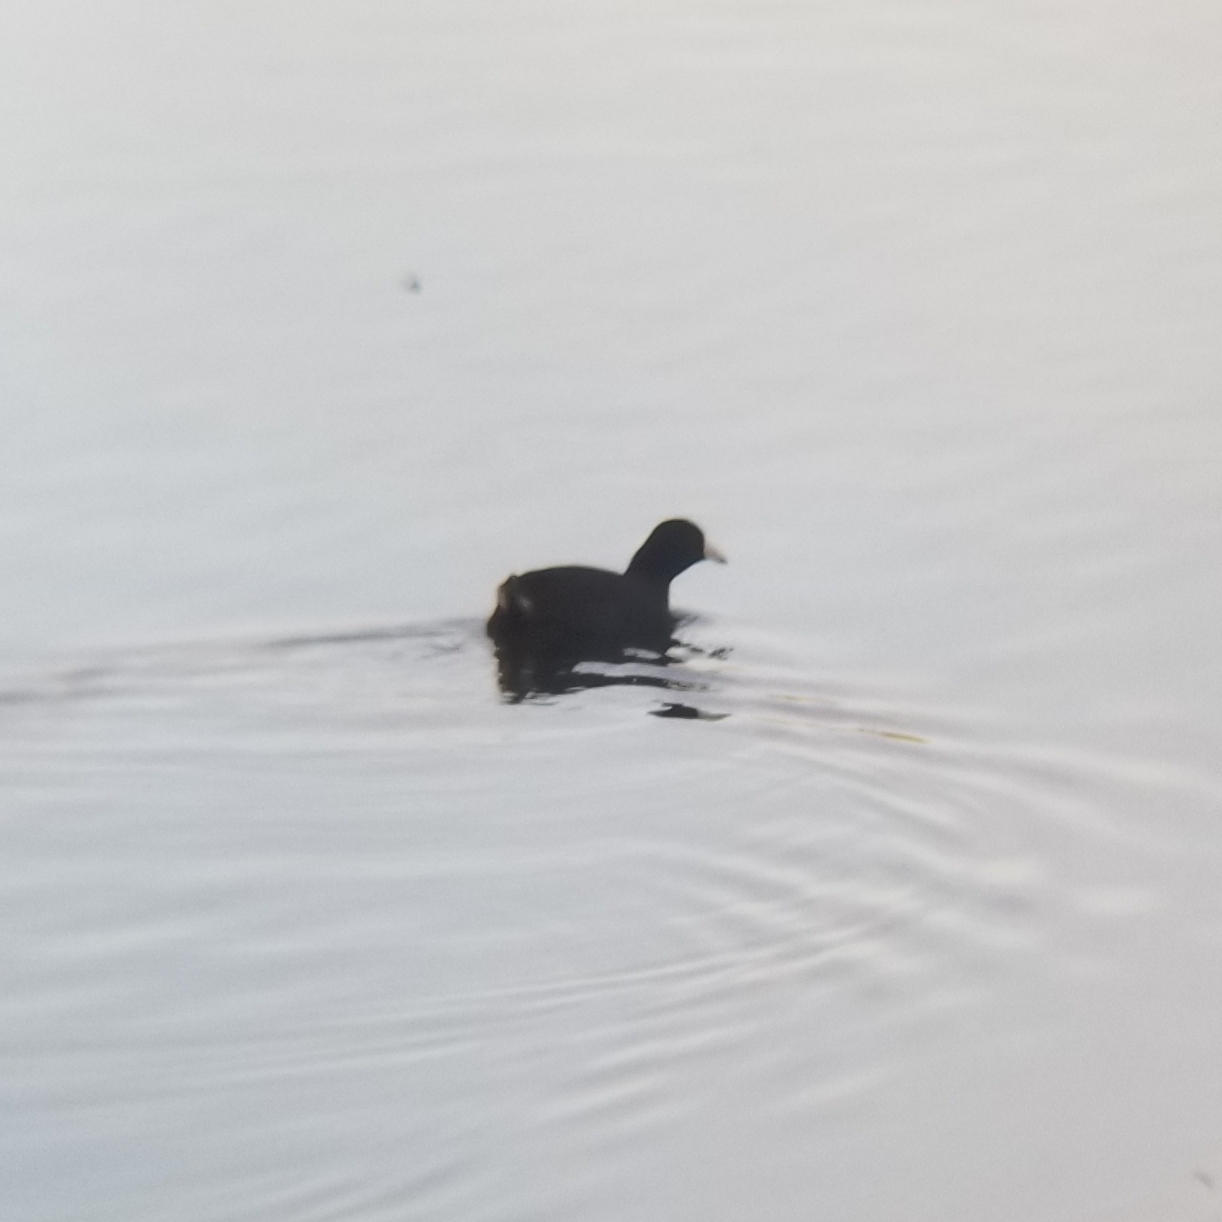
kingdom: Animalia
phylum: Chordata
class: Aves
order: Gruiformes
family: Rallidae
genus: Fulica
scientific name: Fulica americana
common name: American coot
